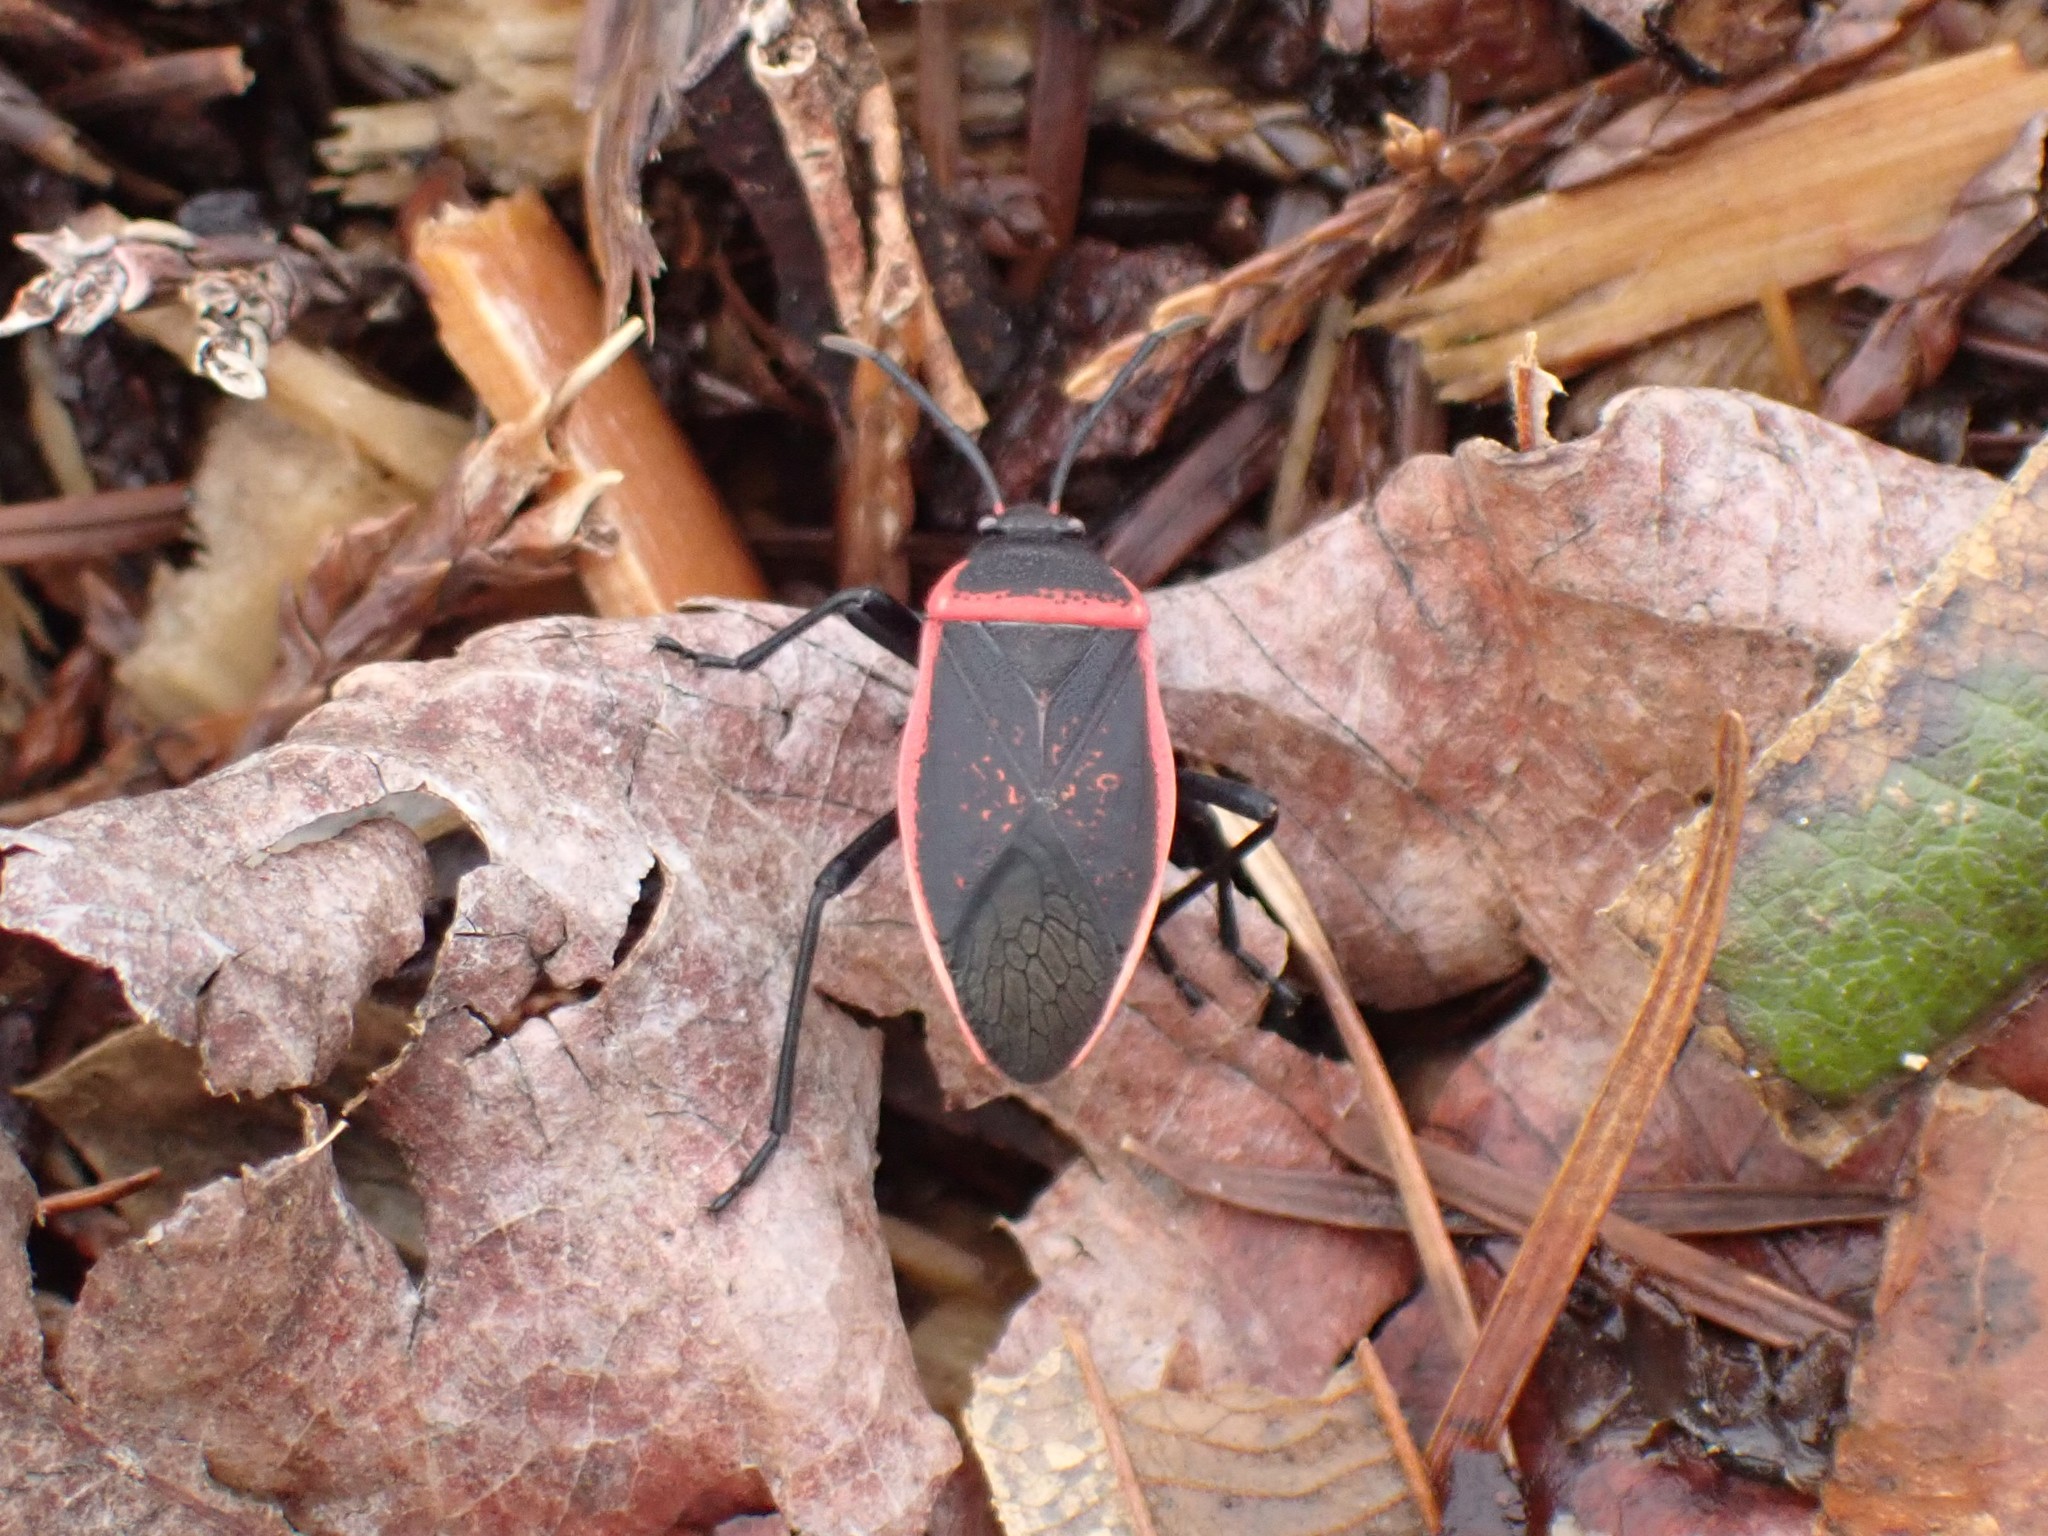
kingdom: Animalia
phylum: Arthropoda
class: Insecta
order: Hemiptera
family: Largidae
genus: Largus
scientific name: Largus
